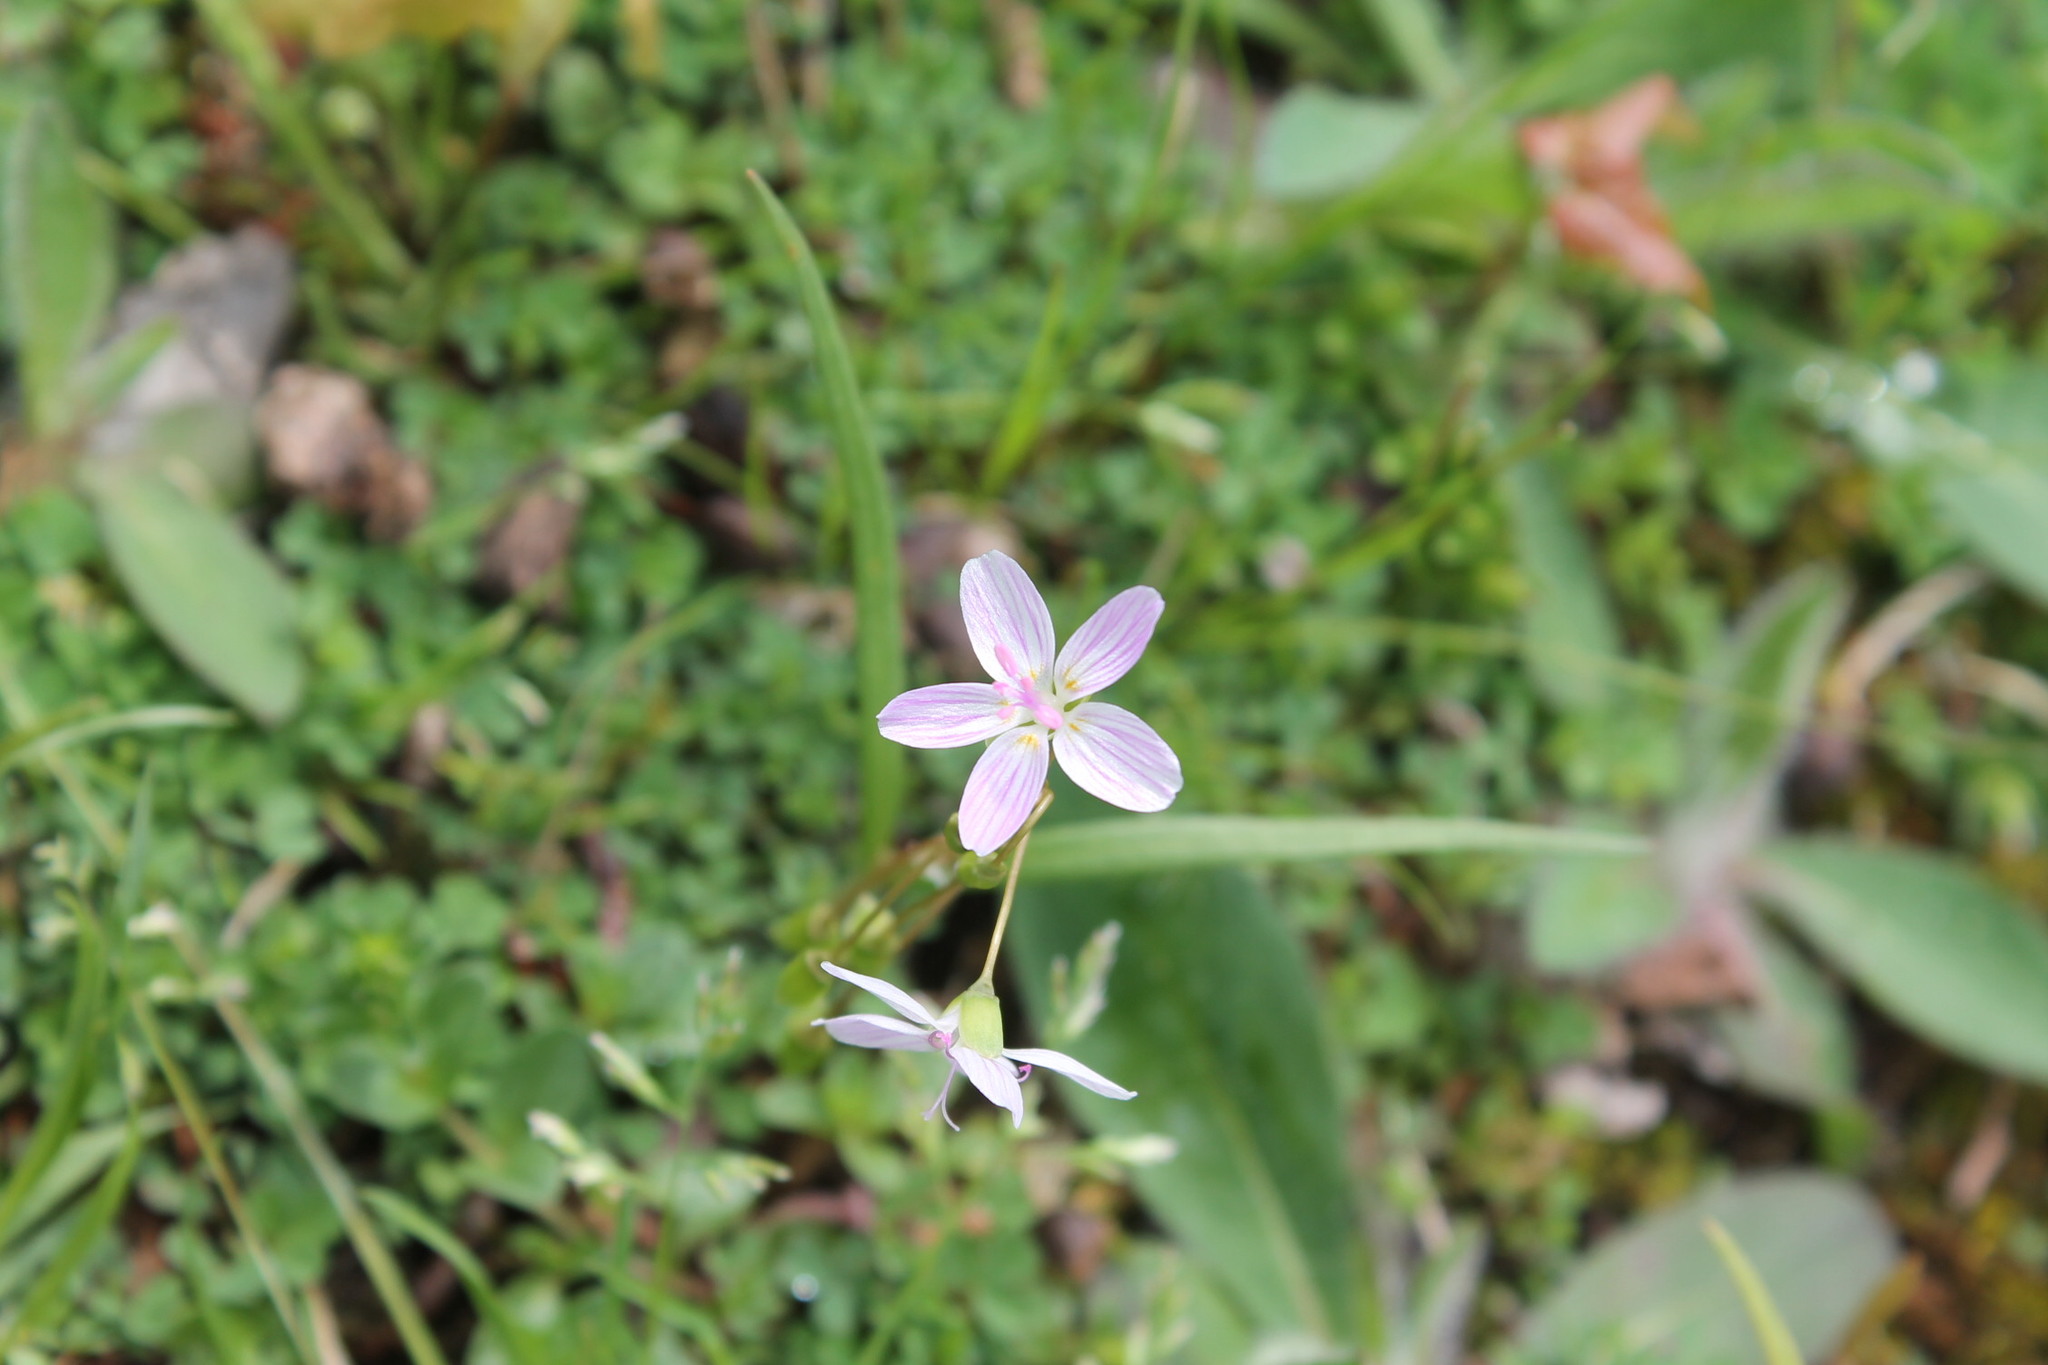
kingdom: Plantae
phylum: Tracheophyta
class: Magnoliopsida
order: Caryophyllales
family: Montiaceae
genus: Claytonia
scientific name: Claytonia virginica
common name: Virginia springbeauty
